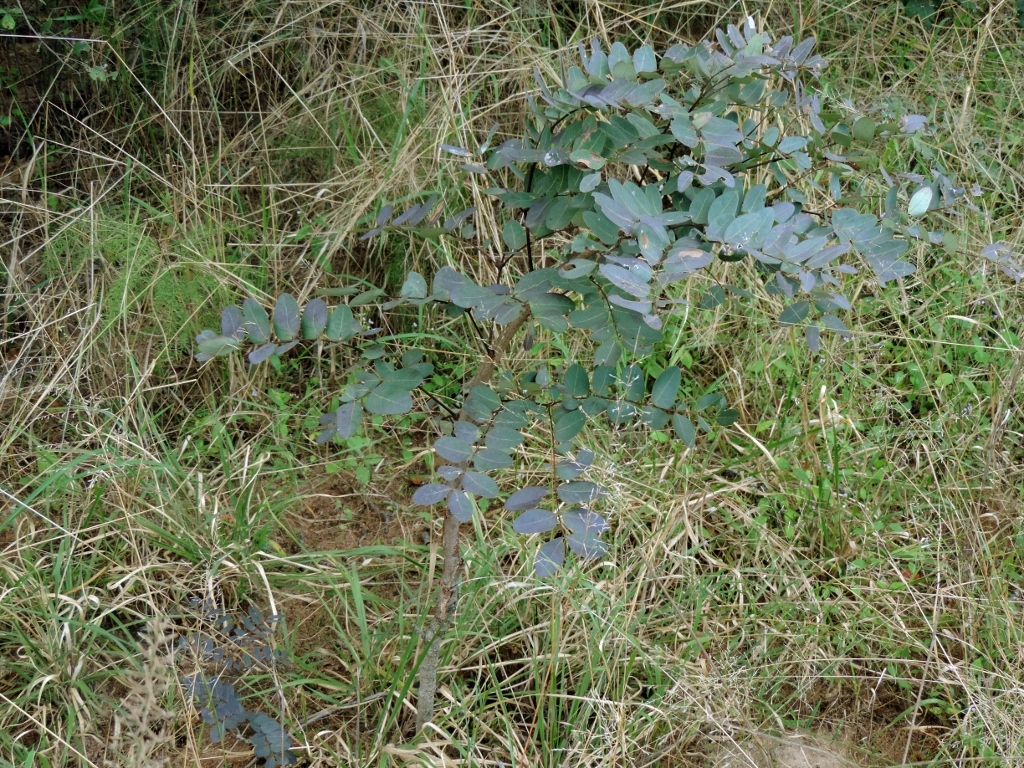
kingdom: Plantae
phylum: Tracheophyta
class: Magnoliopsida
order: Fabales
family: Fabaceae
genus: Albizia
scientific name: Albizia antunesiana
